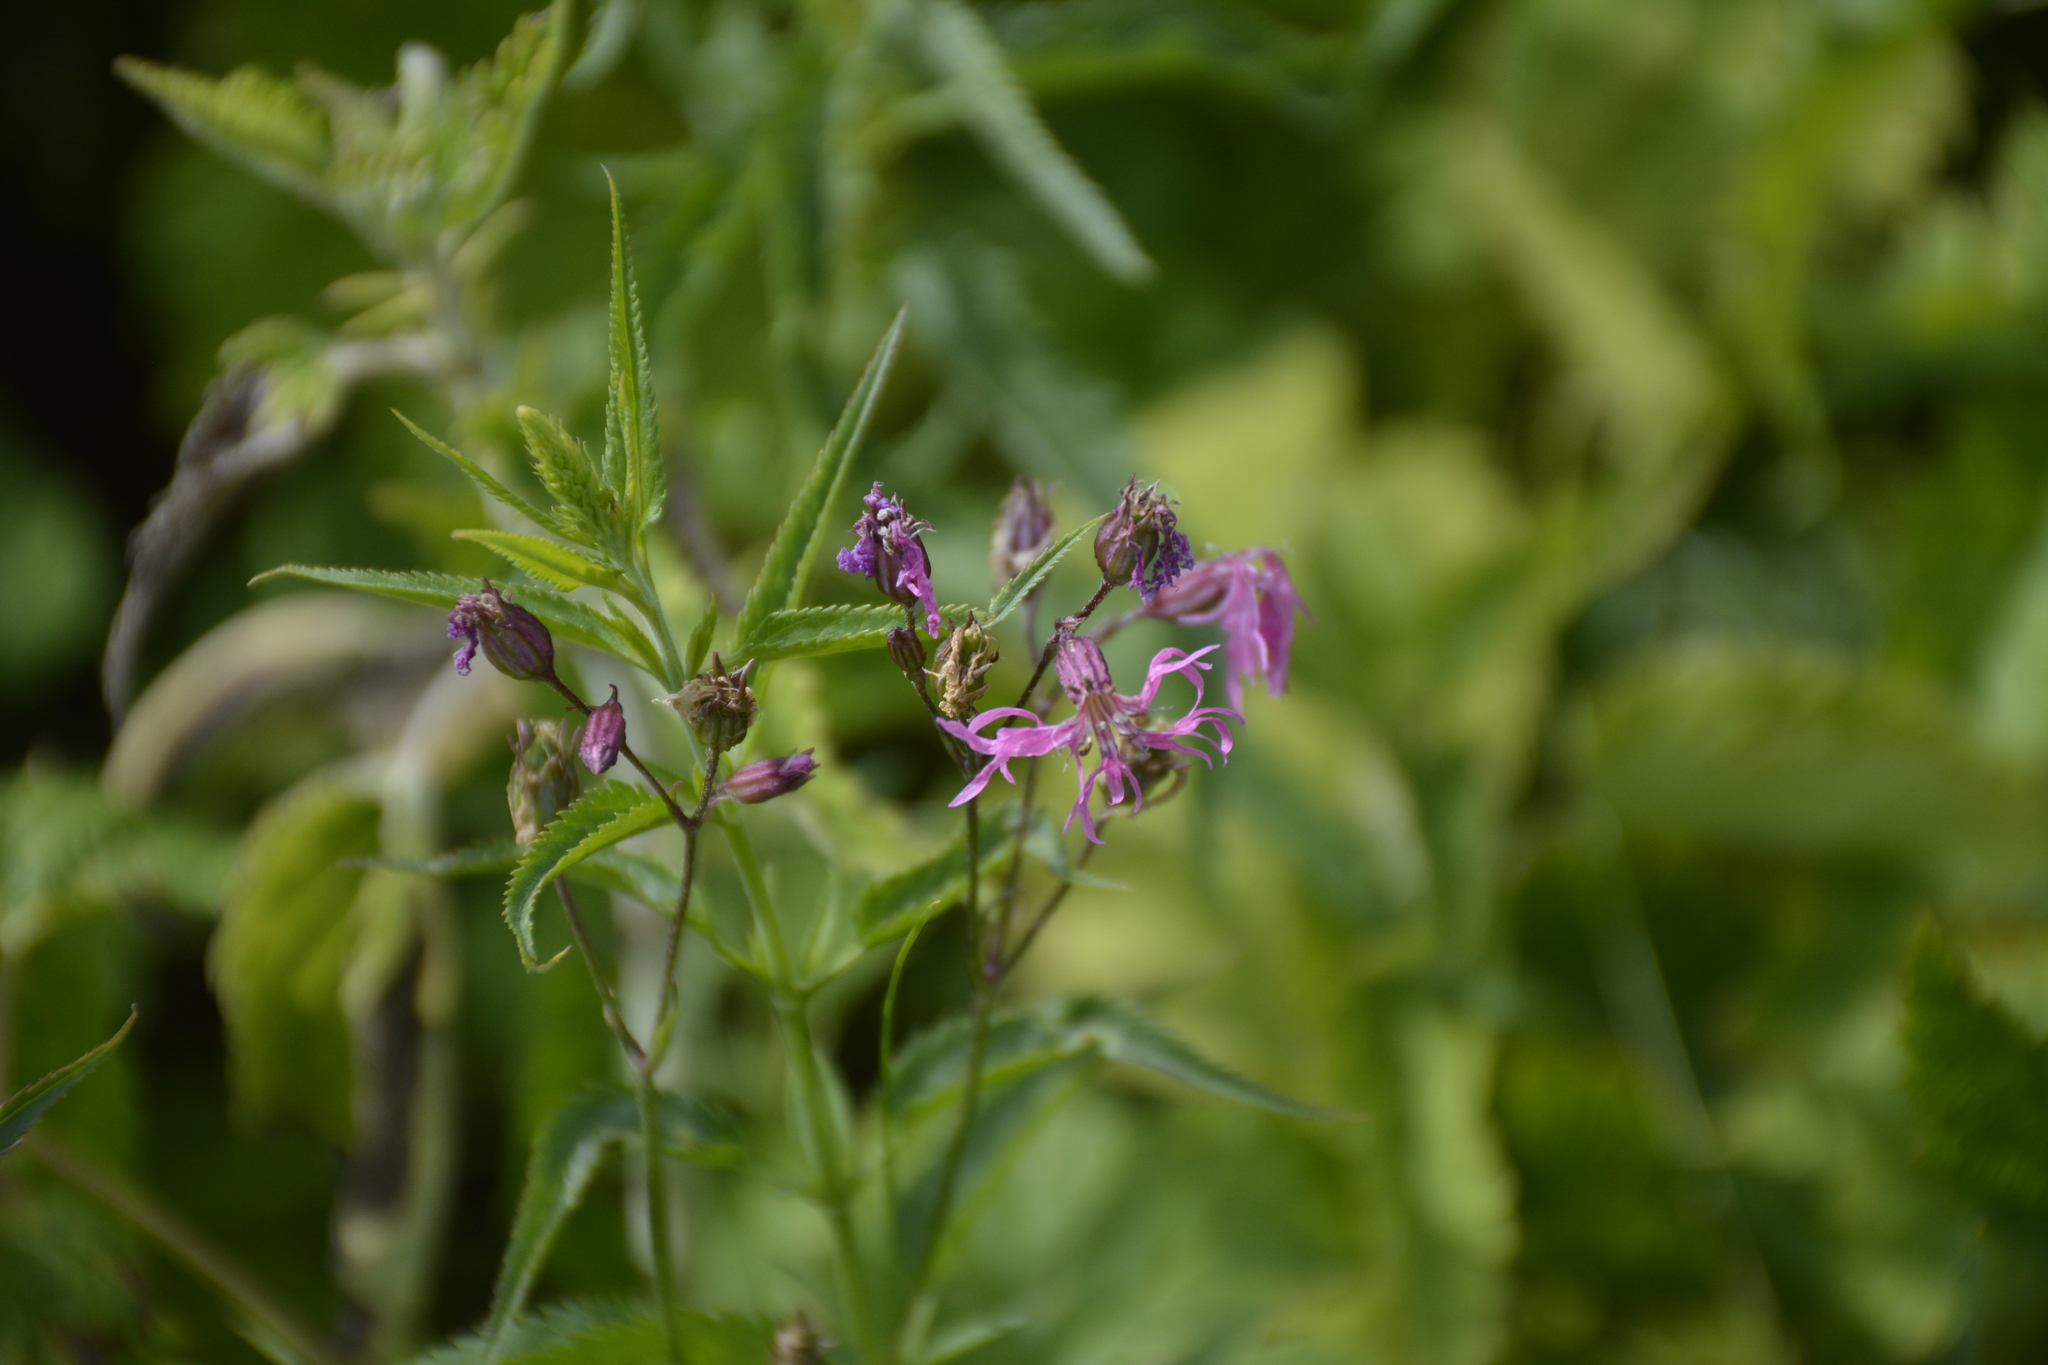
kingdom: Plantae
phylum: Tracheophyta
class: Magnoliopsida
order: Caryophyllales
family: Caryophyllaceae
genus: Silene
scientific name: Silene flos-cuculi
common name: Ragged-robin
